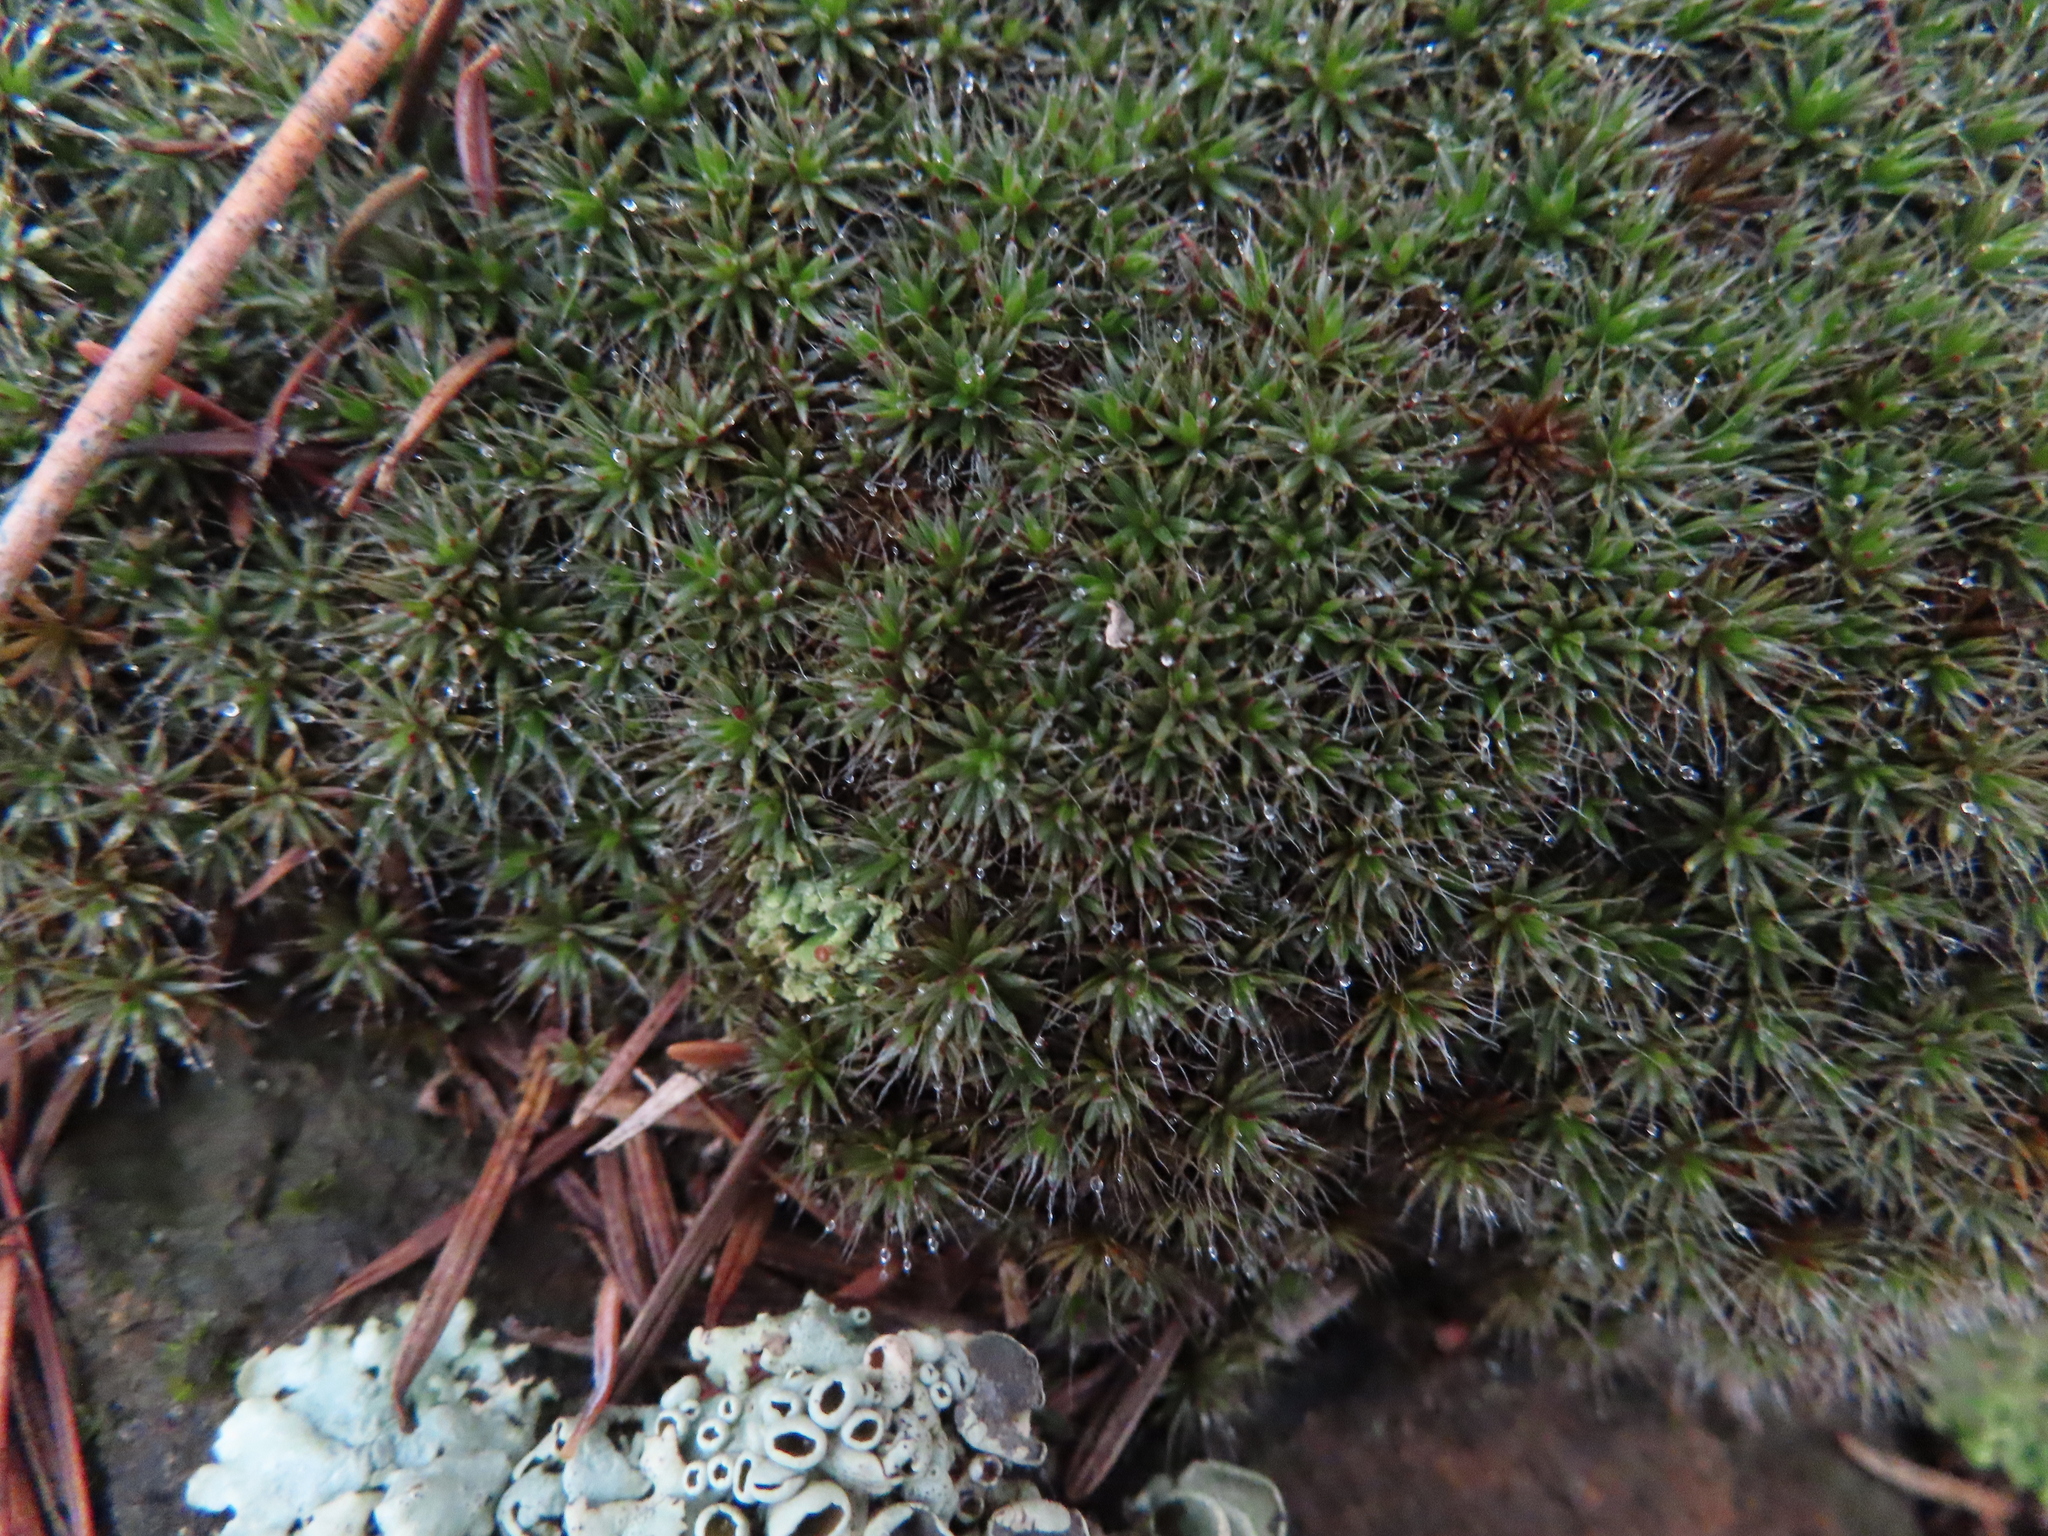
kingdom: Plantae
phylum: Bryophyta
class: Polytrichopsida
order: Polytrichales
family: Polytrichaceae
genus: Polytrichum
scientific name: Polytrichum piliferum
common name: Bristly haircap
